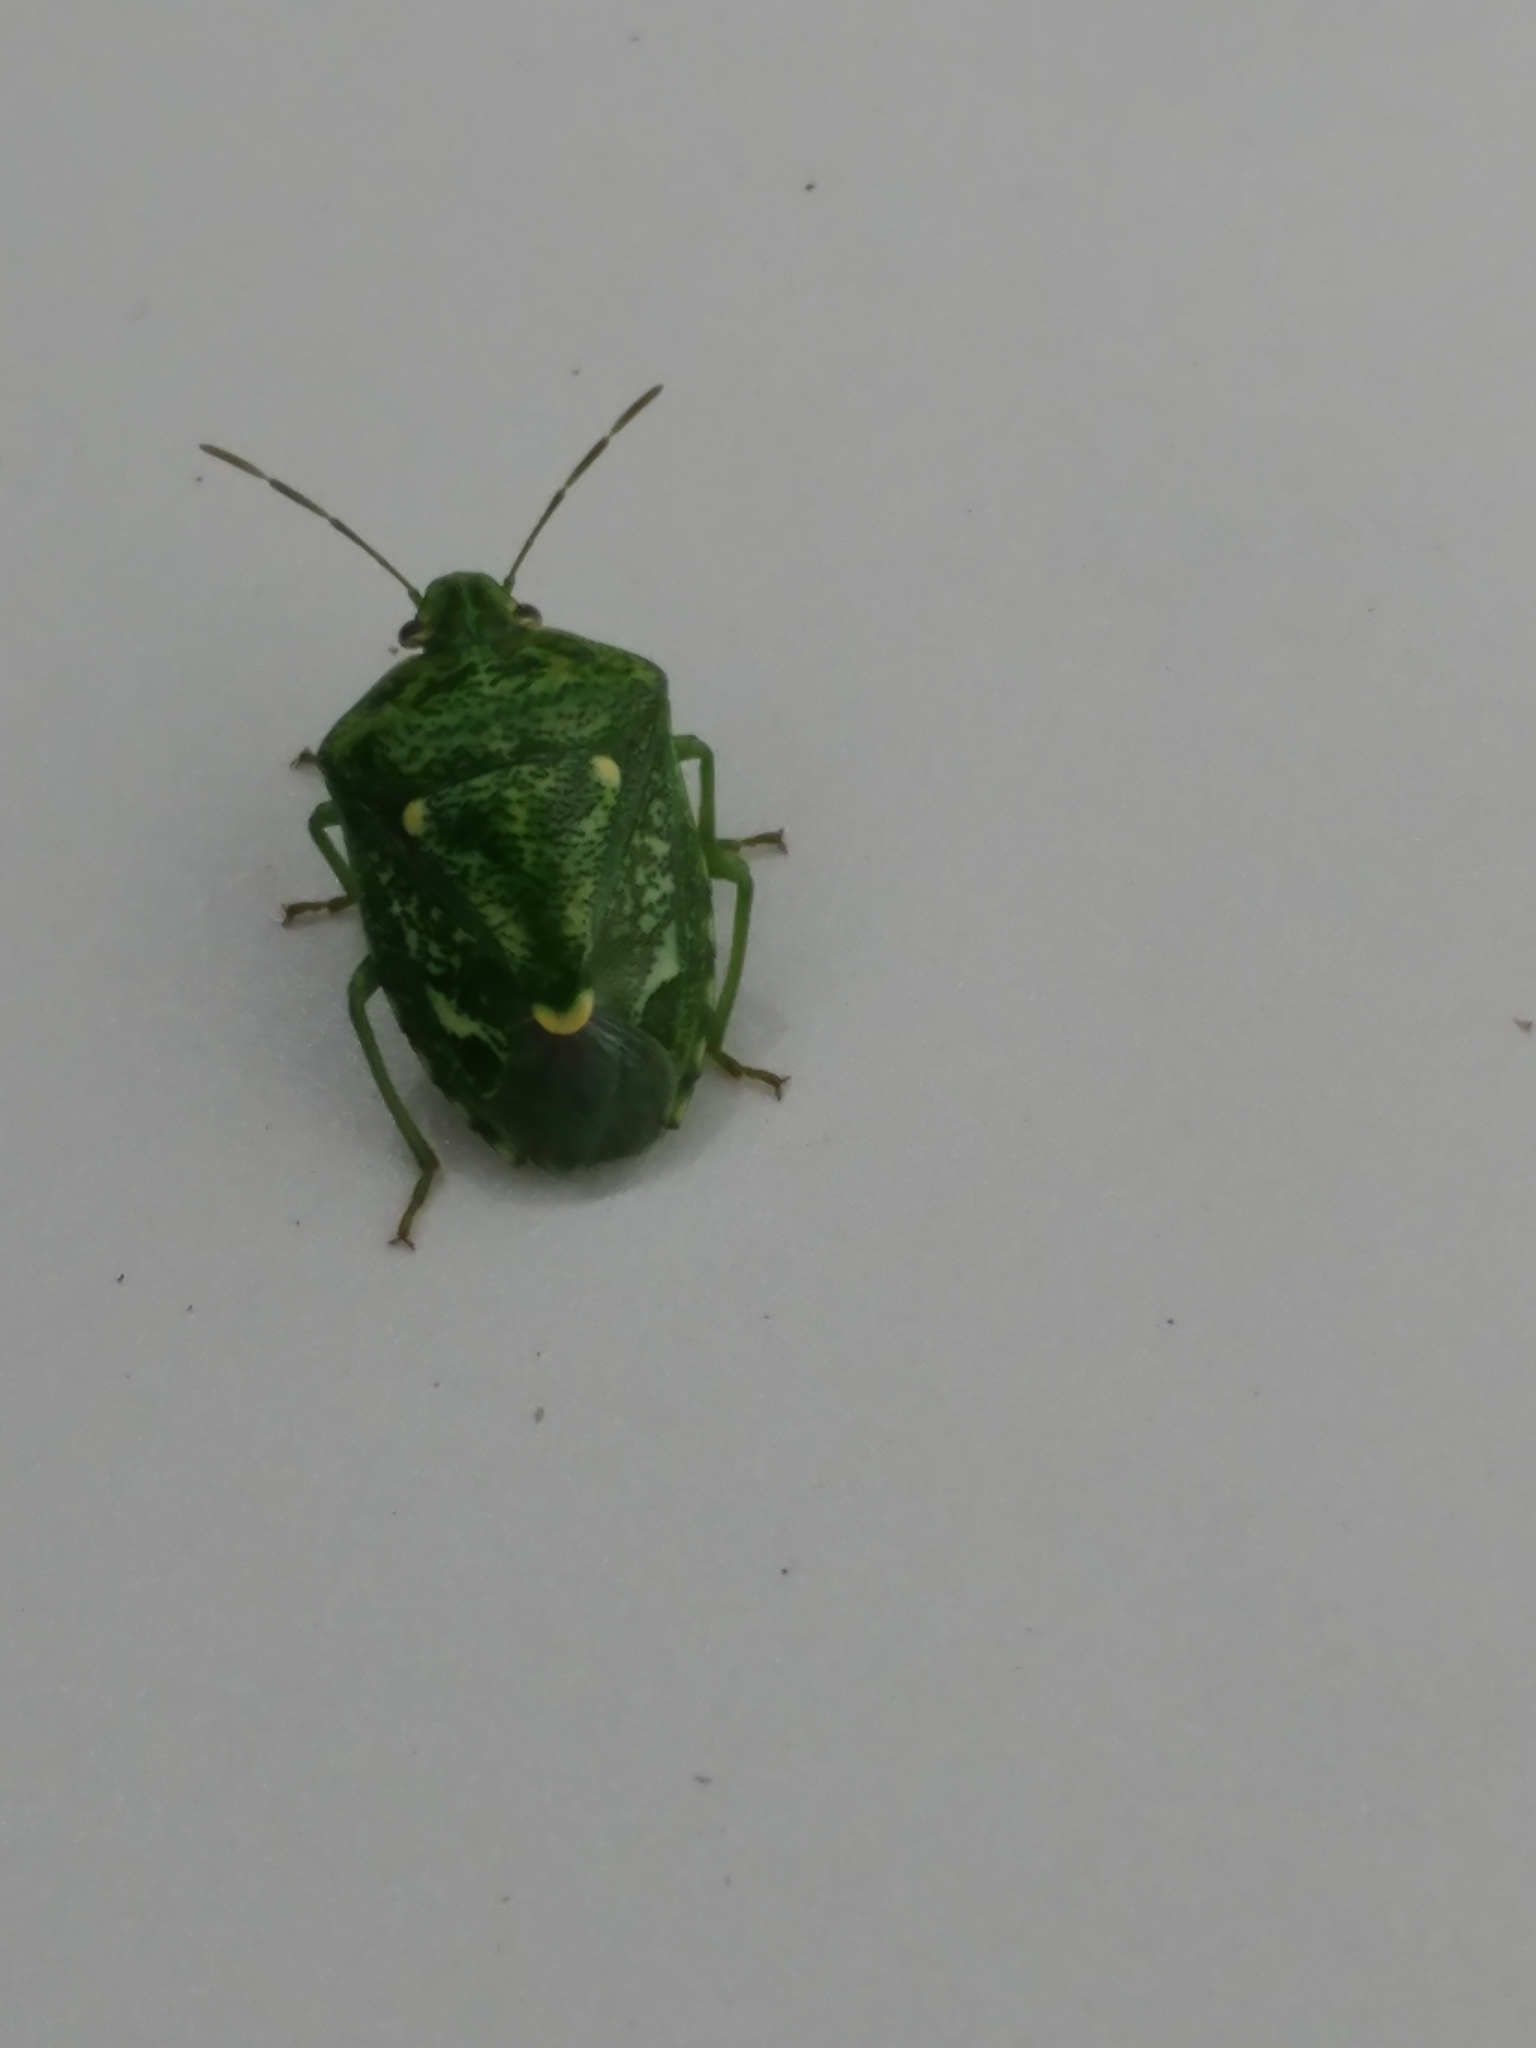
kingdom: Animalia
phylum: Arthropoda
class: Insecta
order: Hemiptera
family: Pentatomidae
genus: Banasa
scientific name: Banasa euchlora
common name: Cedar berry bug
